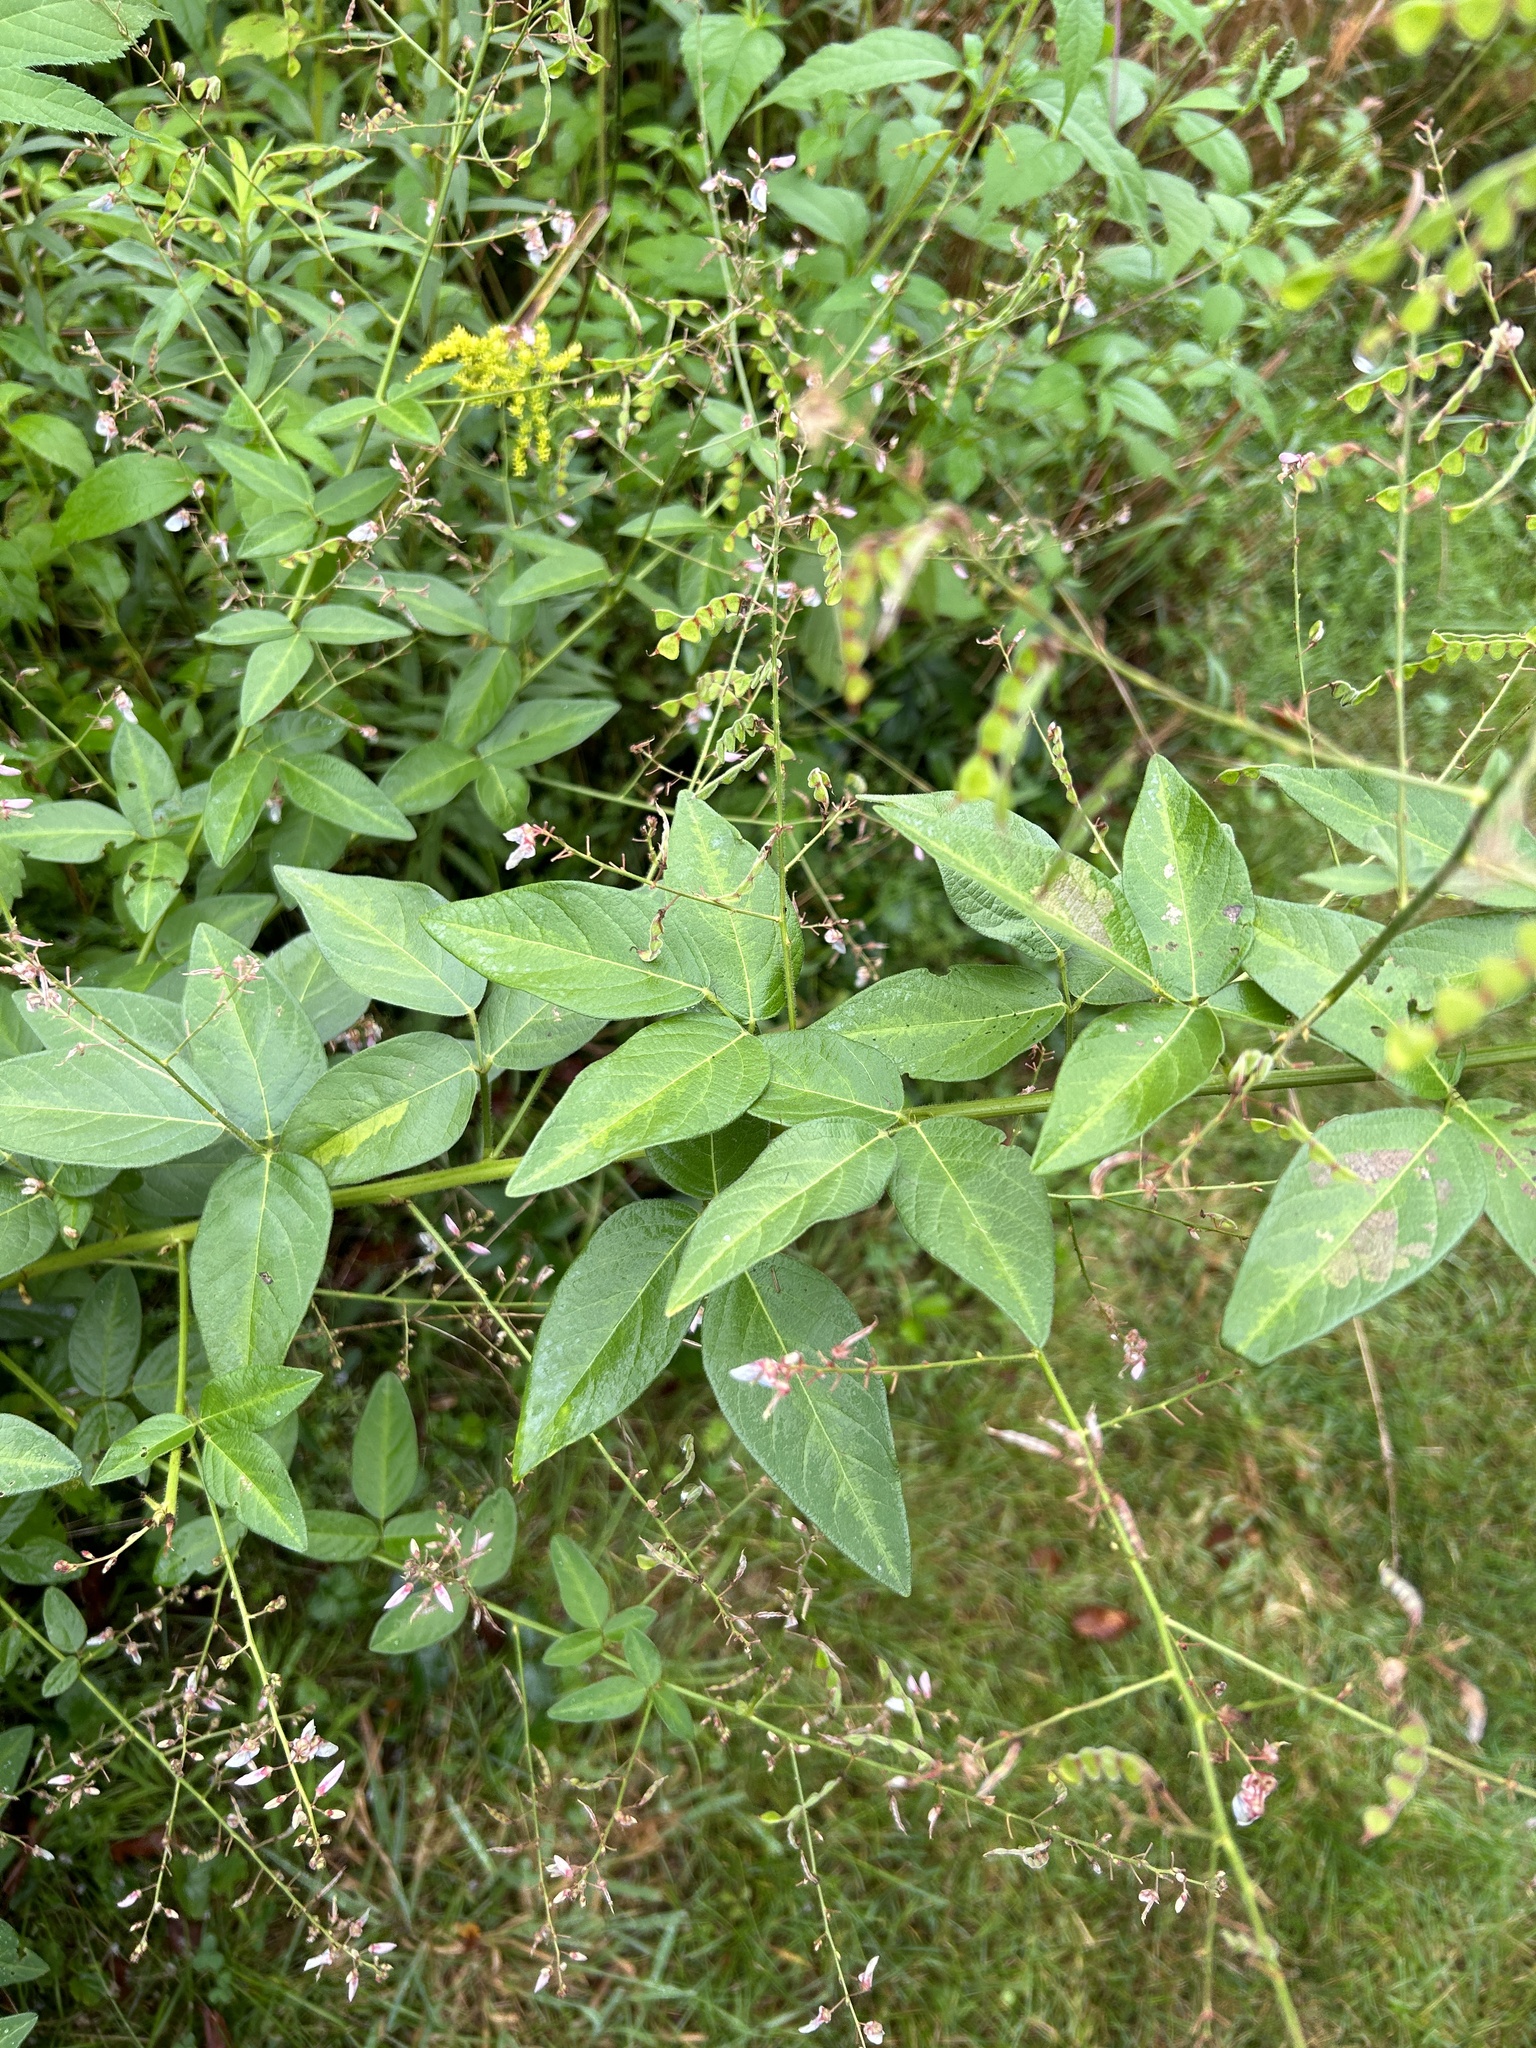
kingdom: Plantae
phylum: Tracheophyta
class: Magnoliopsida
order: Fabales
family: Fabaceae
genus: Desmodium
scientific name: Desmodium glabellum
